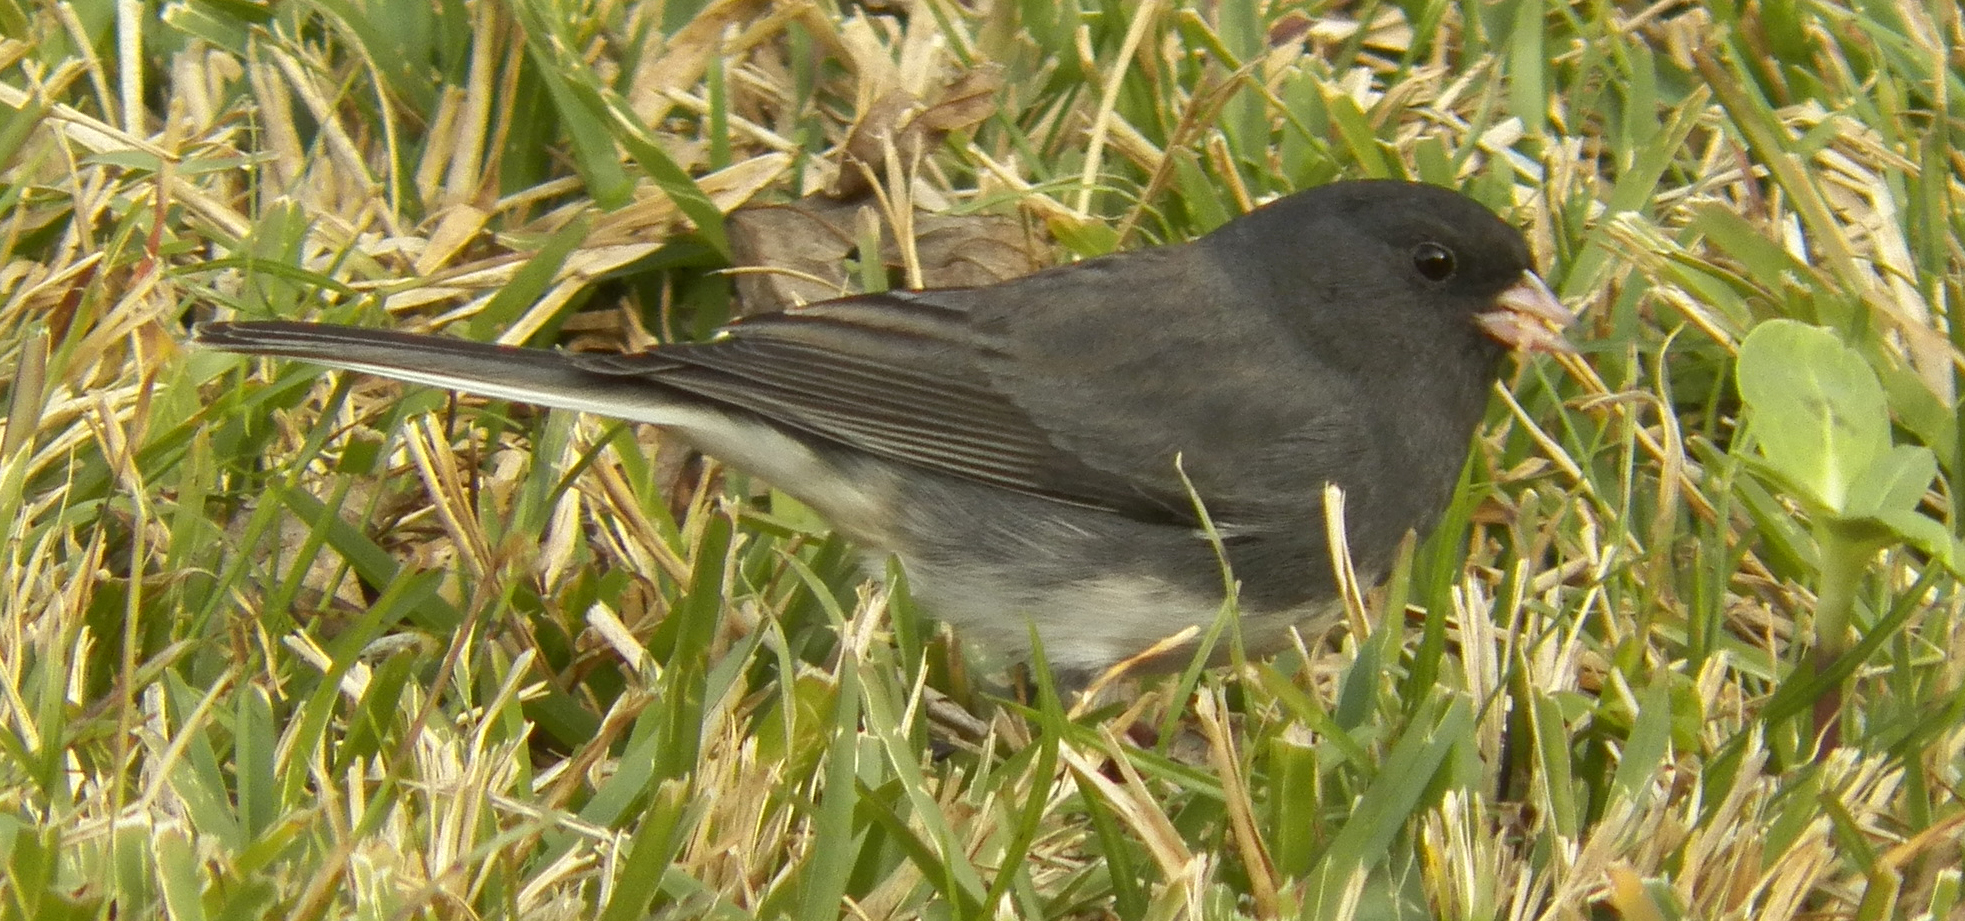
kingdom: Animalia
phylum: Chordata
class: Aves
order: Passeriformes
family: Passerellidae
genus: Junco
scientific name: Junco hyemalis
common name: Dark-eyed junco
